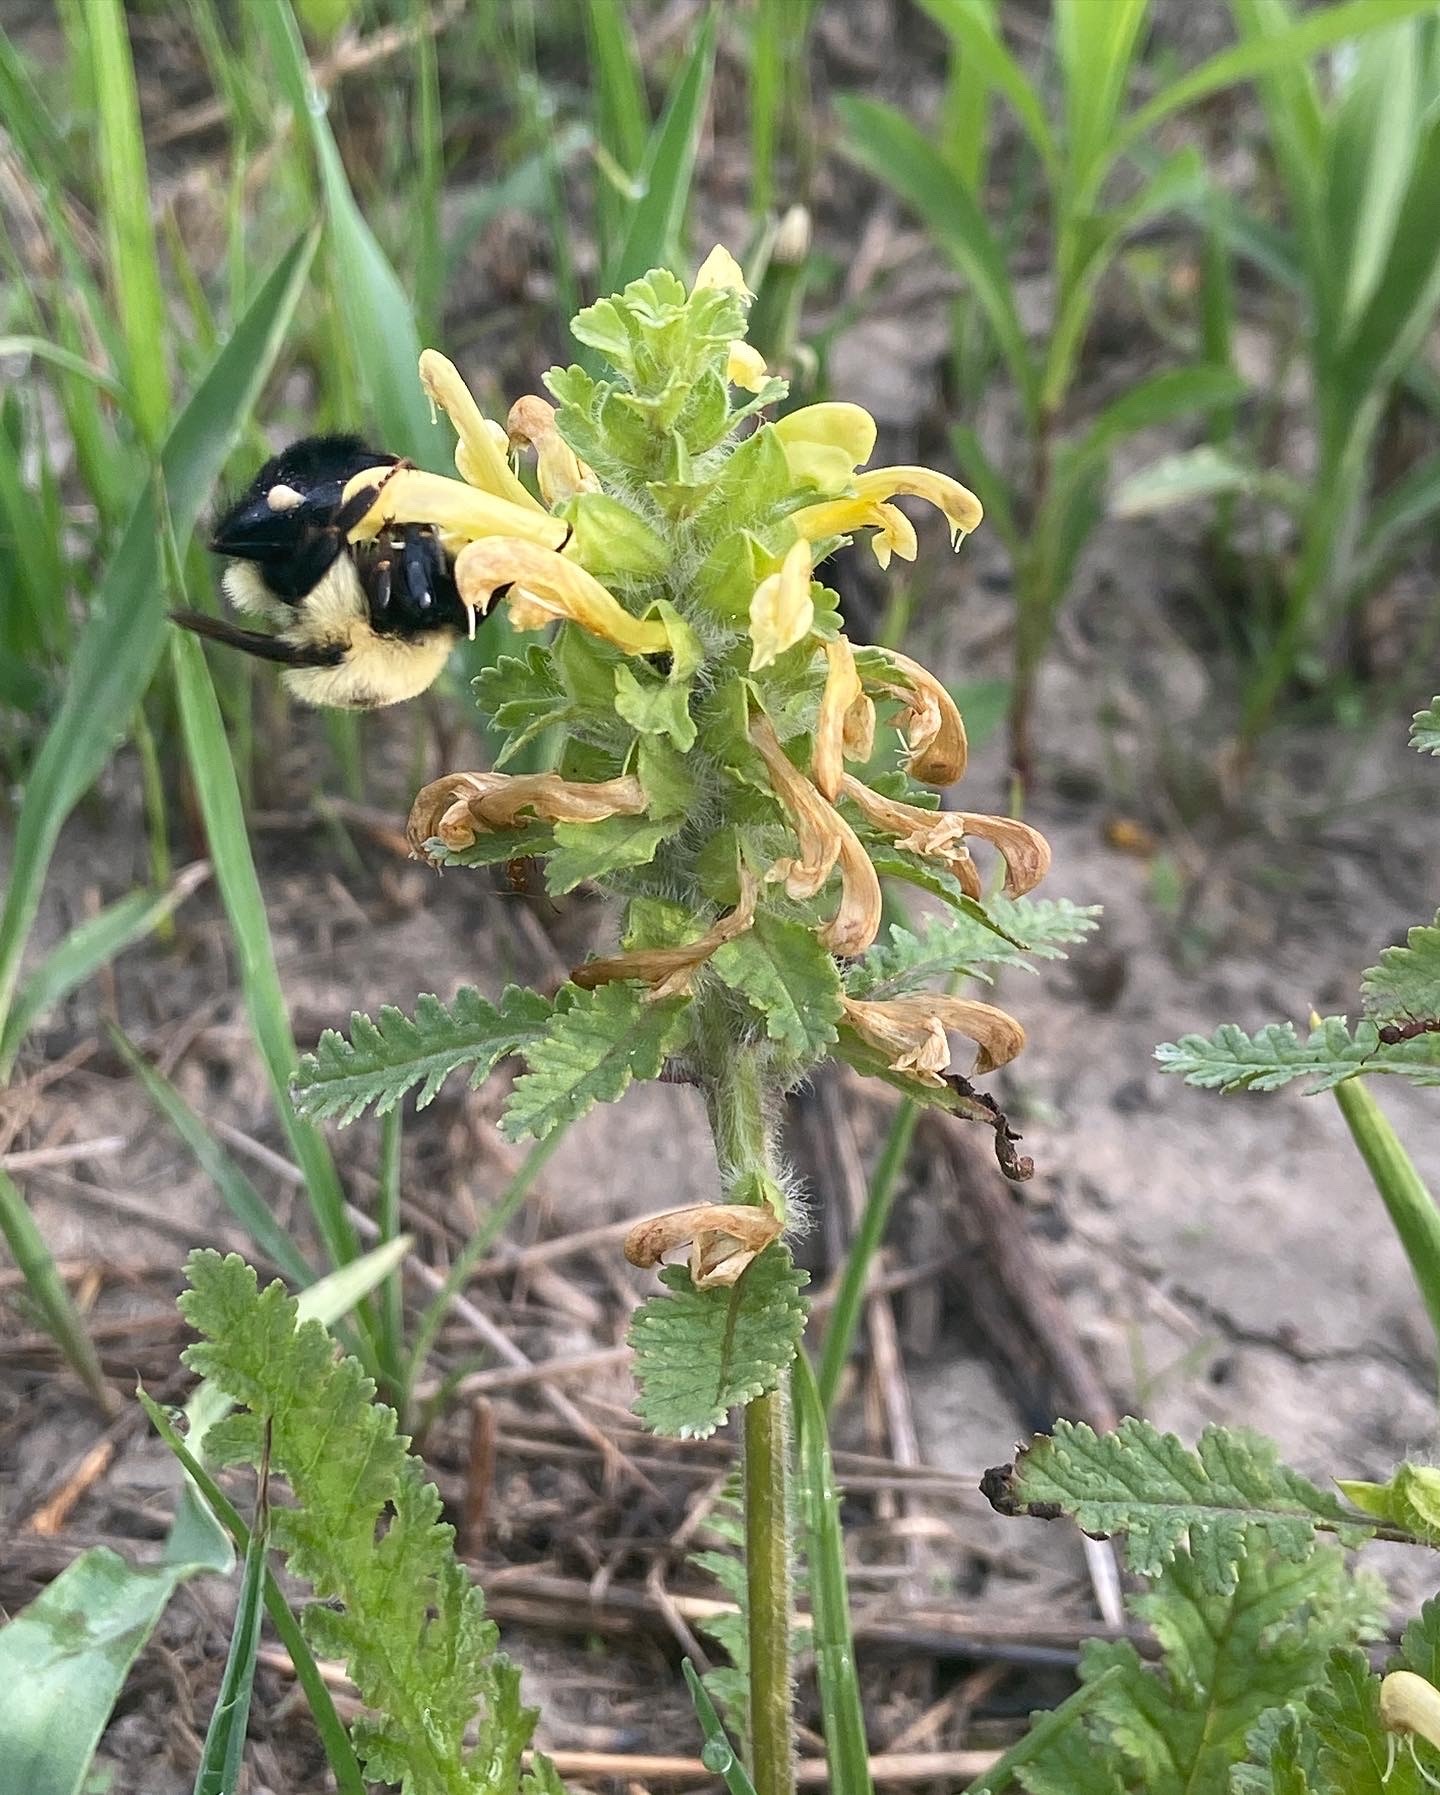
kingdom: Plantae
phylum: Tracheophyta
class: Magnoliopsida
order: Lamiales
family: Orobanchaceae
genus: Pedicularis
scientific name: Pedicularis canadensis
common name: Early lousewort
